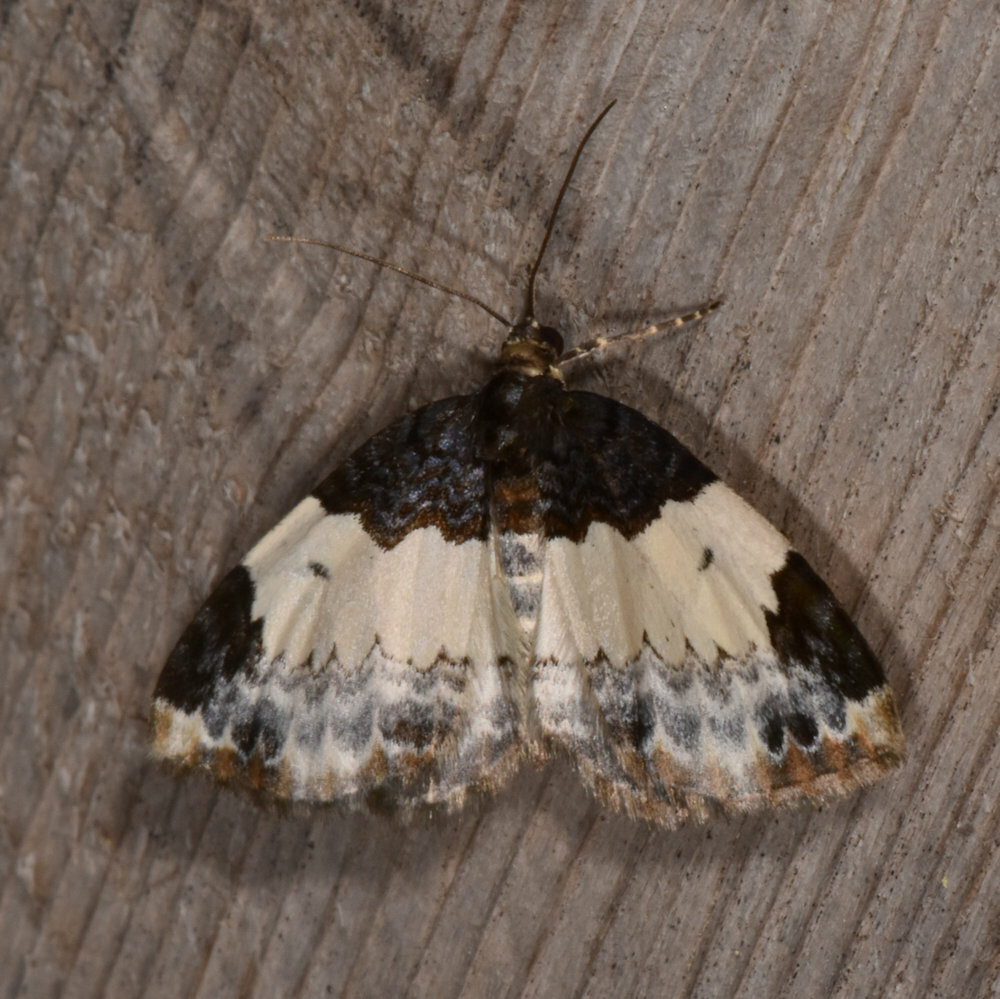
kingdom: Animalia
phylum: Arthropoda
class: Insecta
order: Lepidoptera
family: Geometridae
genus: Mesoleuca
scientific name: Mesoleuca ruficillata
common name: White-ribboned carpet moth
